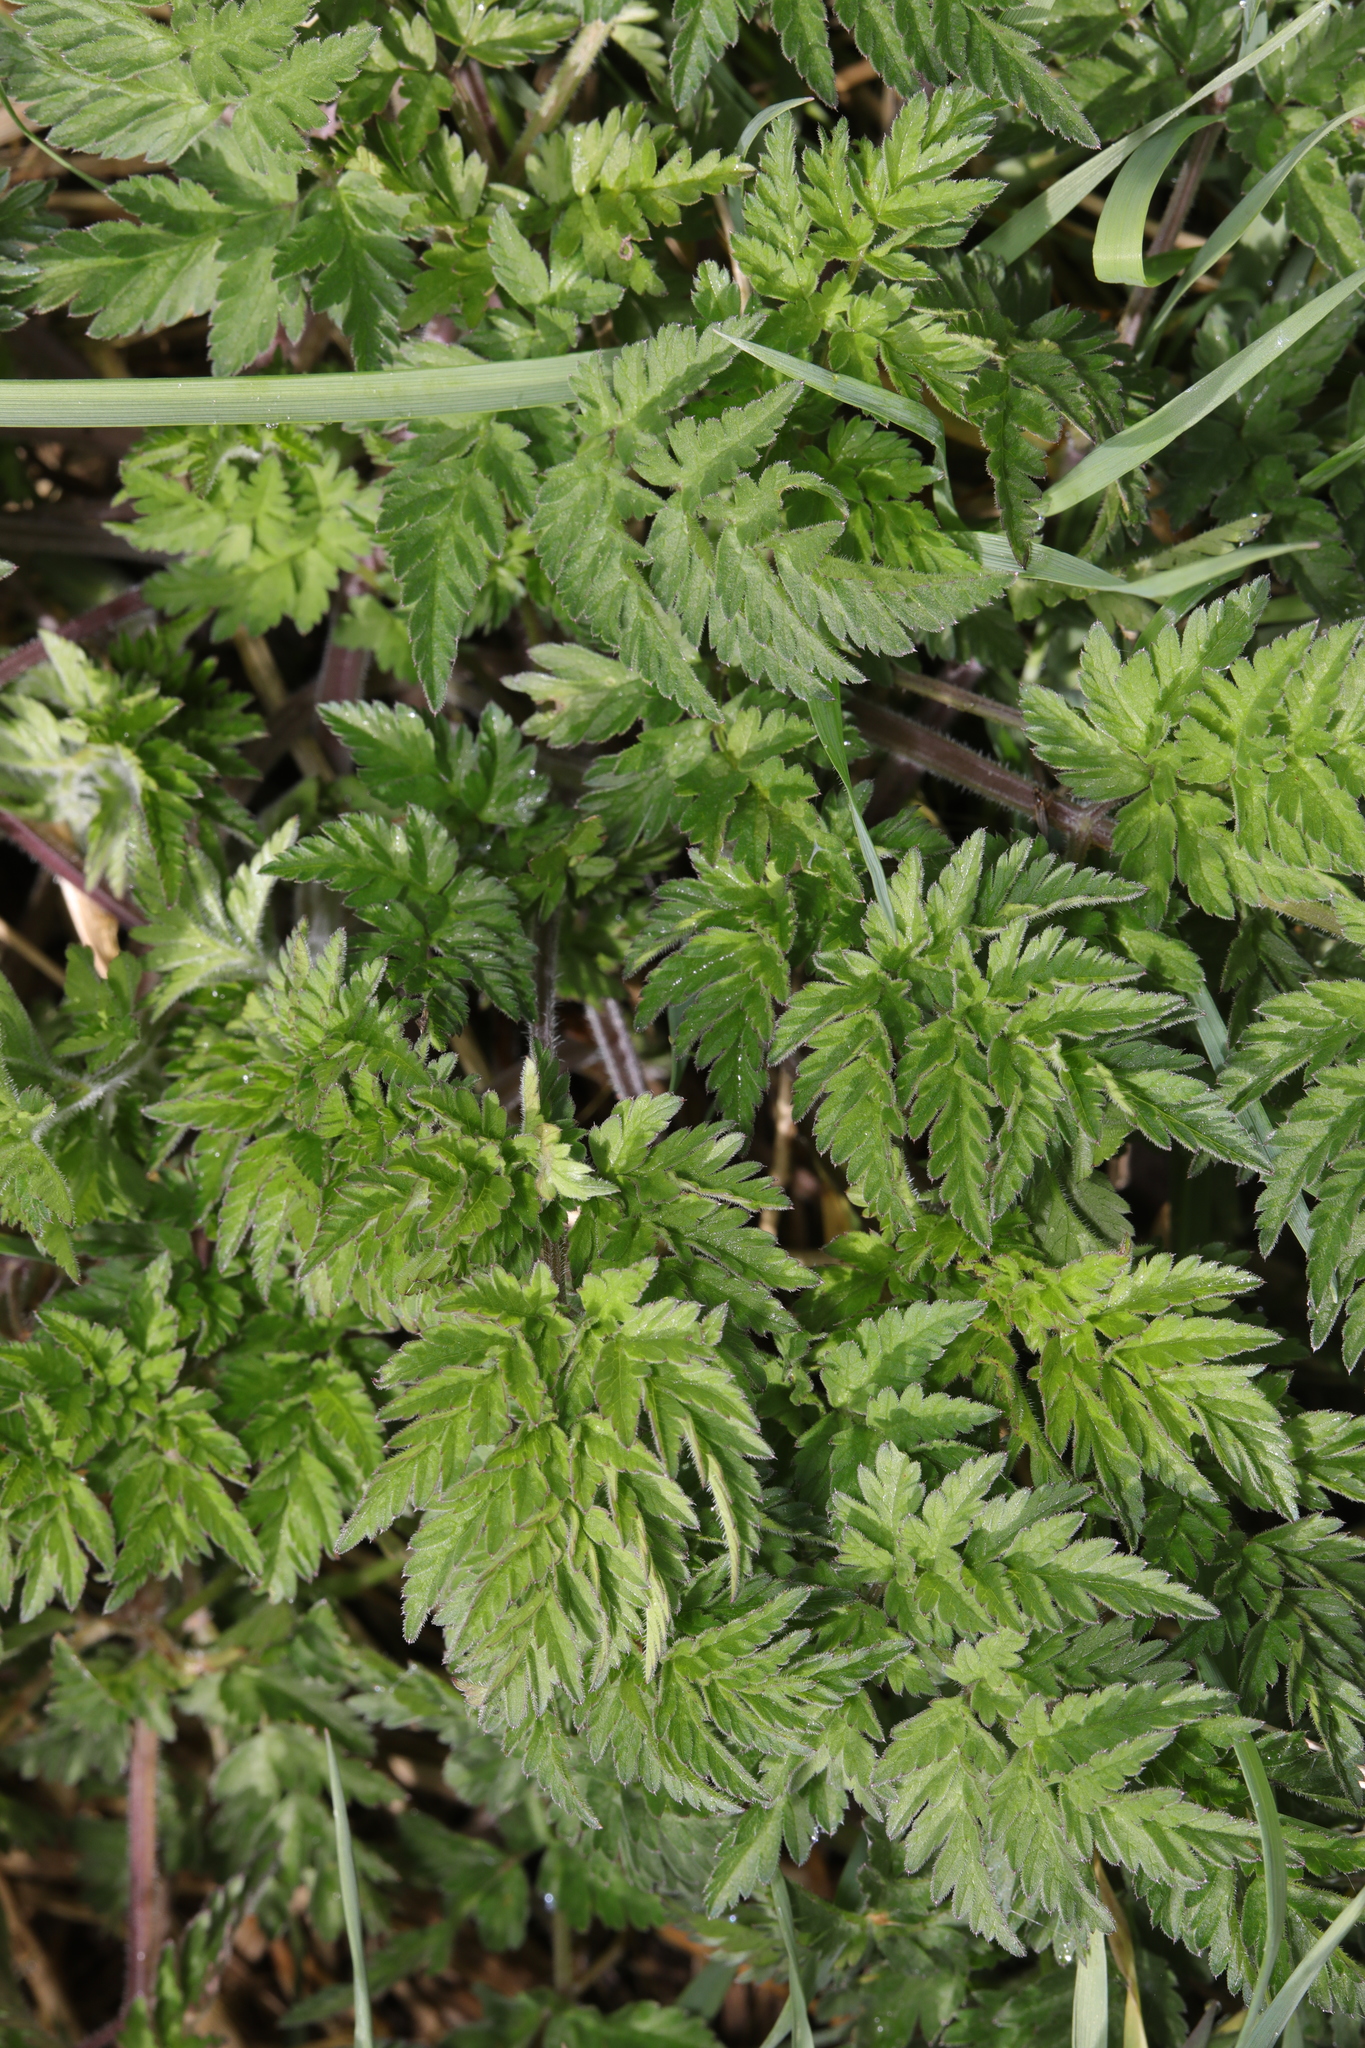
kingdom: Plantae
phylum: Tracheophyta
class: Magnoliopsida
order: Apiales
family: Apiaceae
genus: Anthriscus
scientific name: Anthriscus sylvestris
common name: Cow parsley
